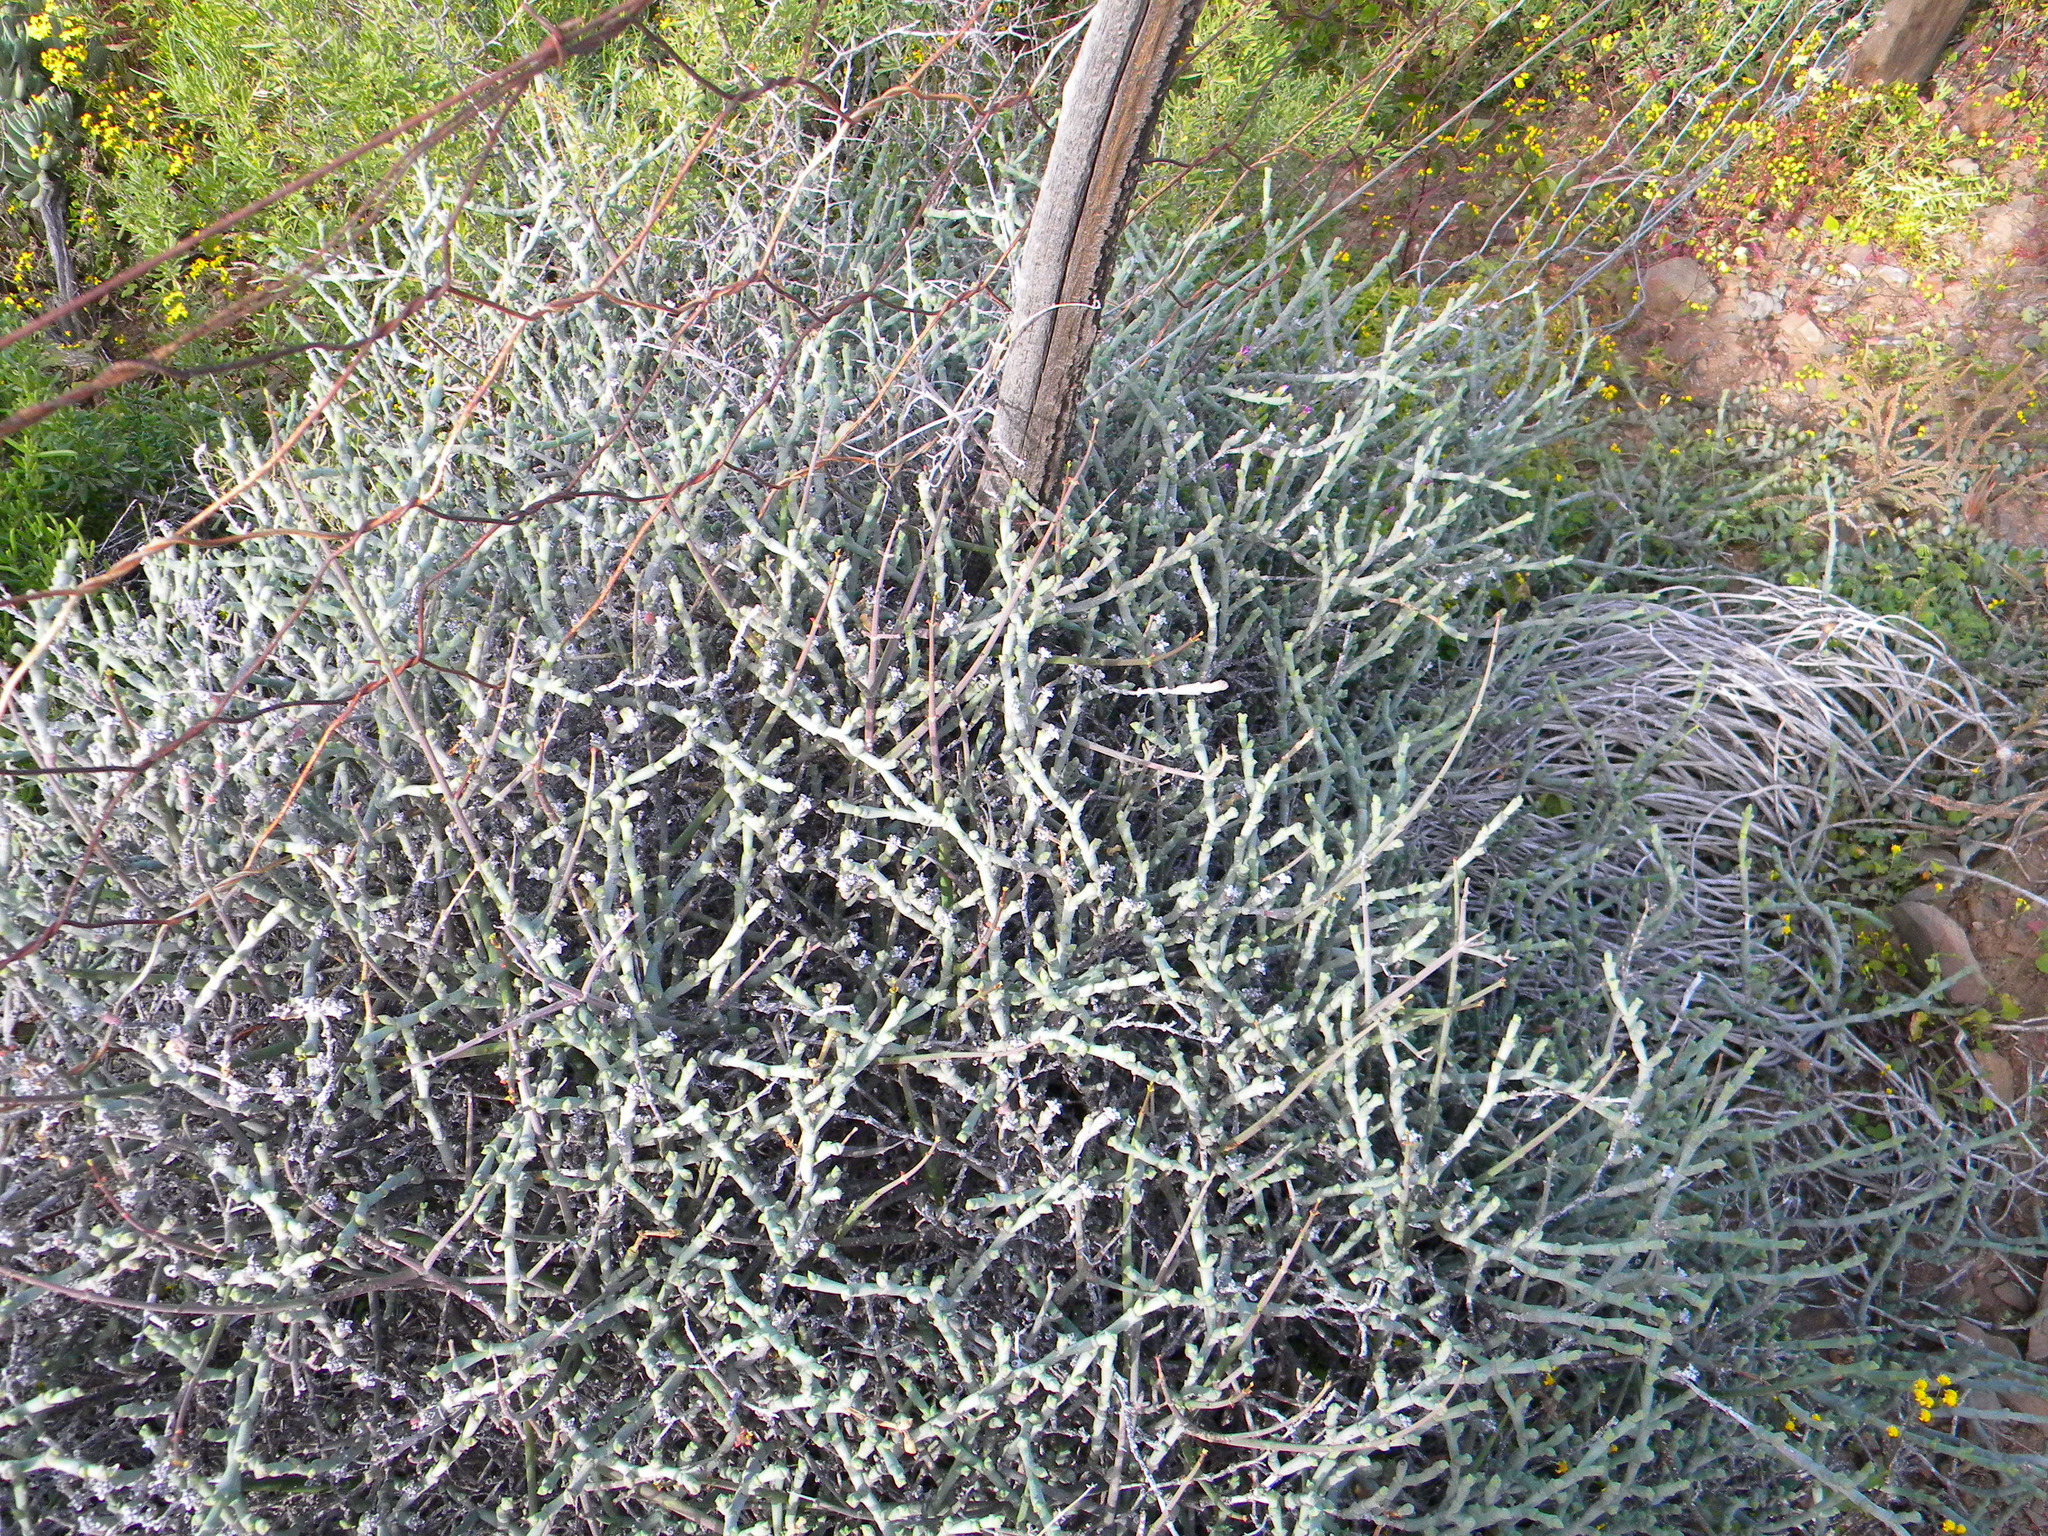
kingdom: Plantae
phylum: Tracheophyta
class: Magnoliopsida
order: Caryophyllales
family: Aizoaceae
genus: Smicrostigma
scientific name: Smicrostigma viride
